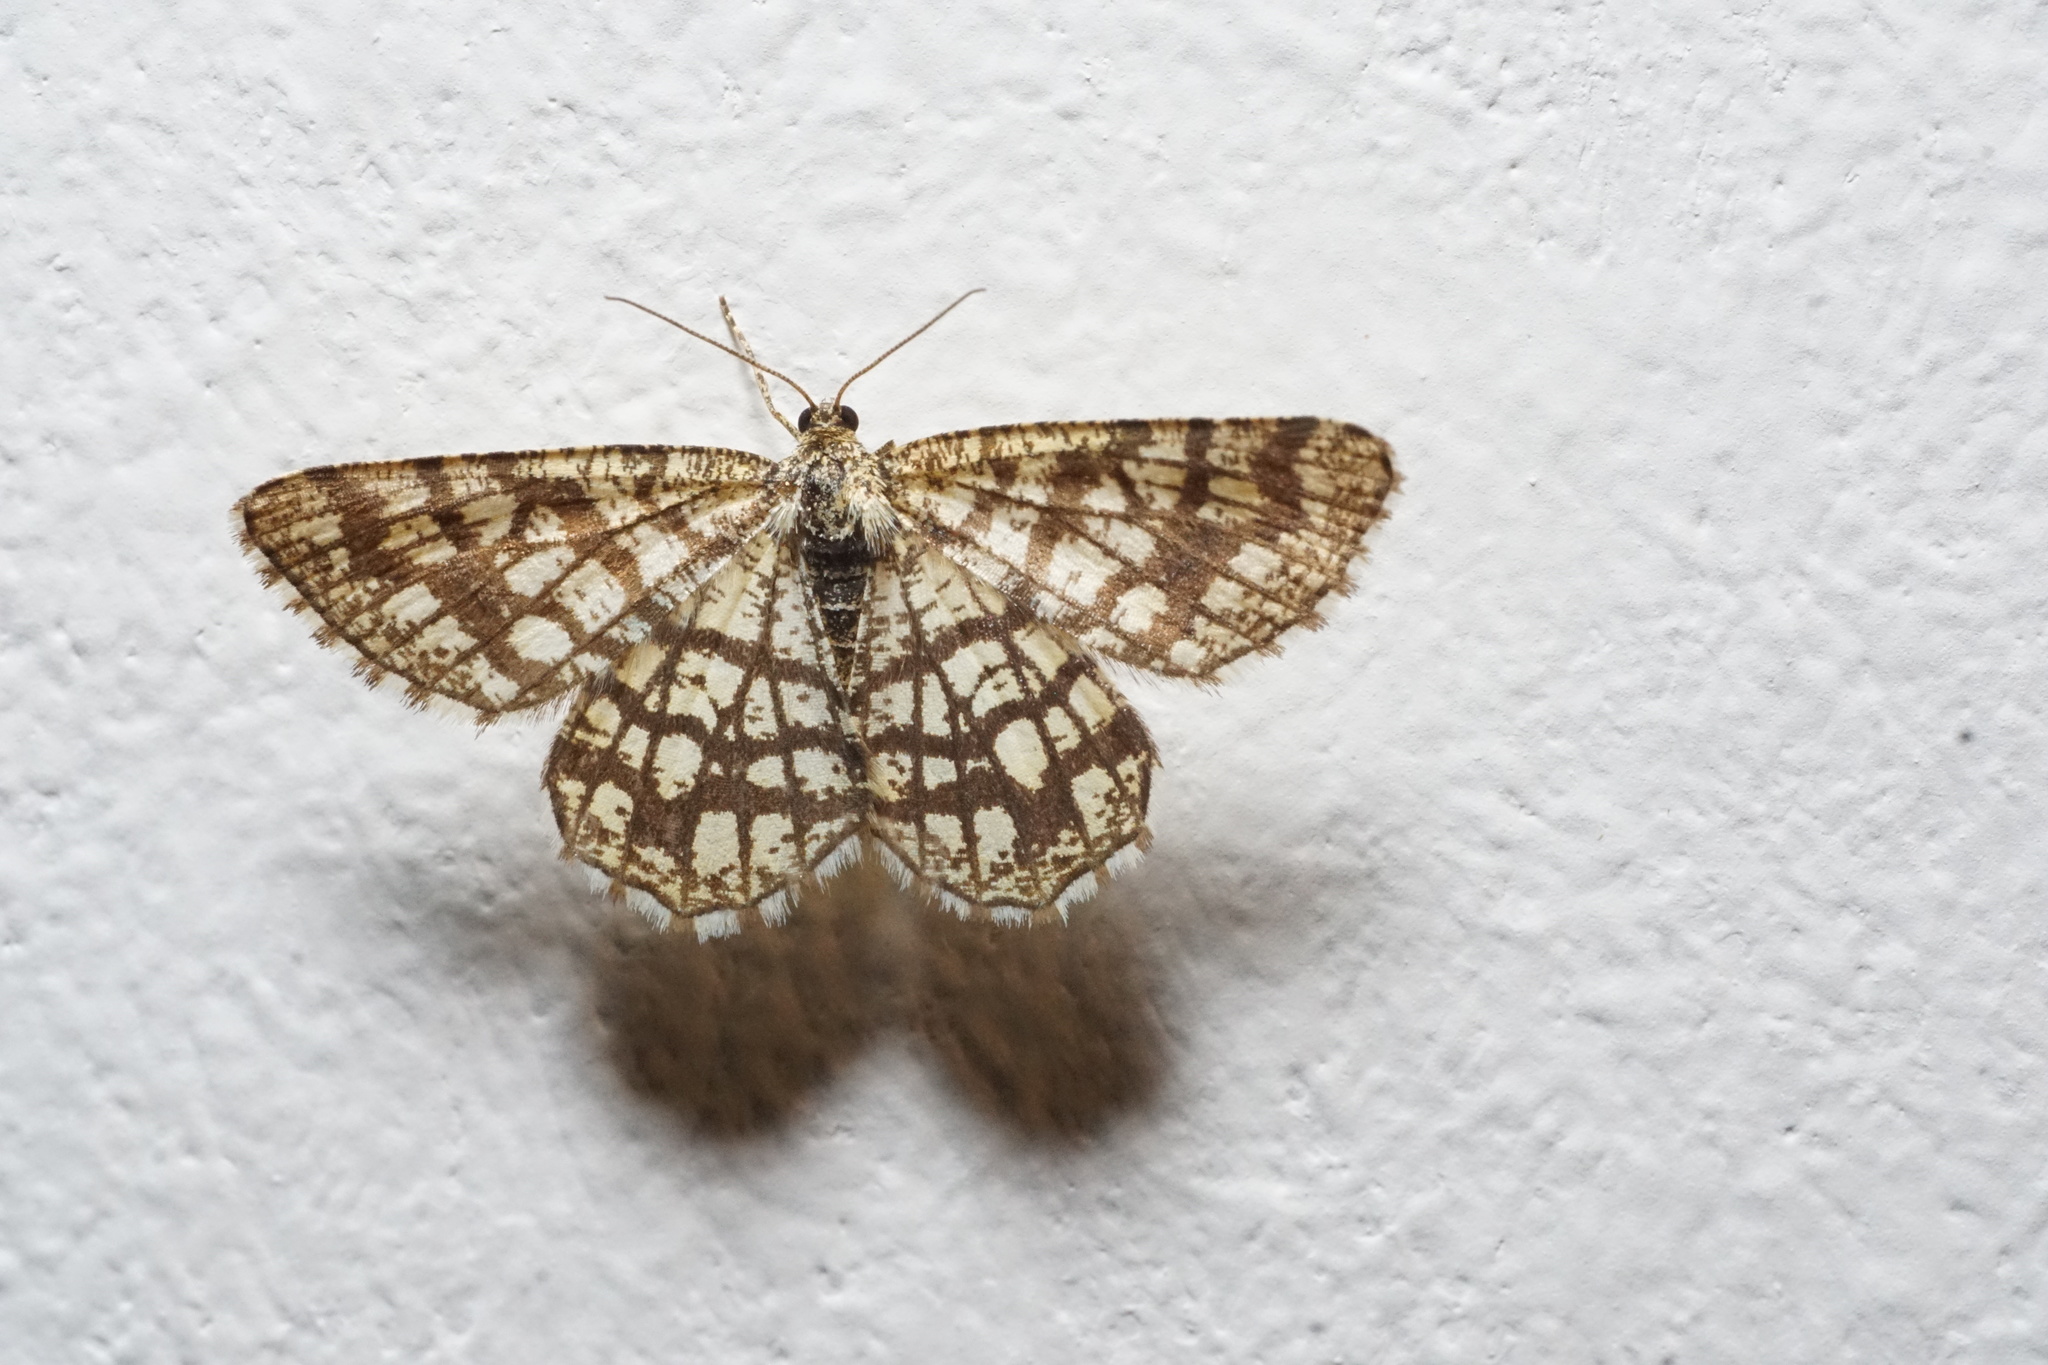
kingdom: Animalia
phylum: Arthropoda
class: Insecta
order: Lepidoptera
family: Geometridae
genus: Chiasmia
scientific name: Chiasmia clathrata
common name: Latticed heath
